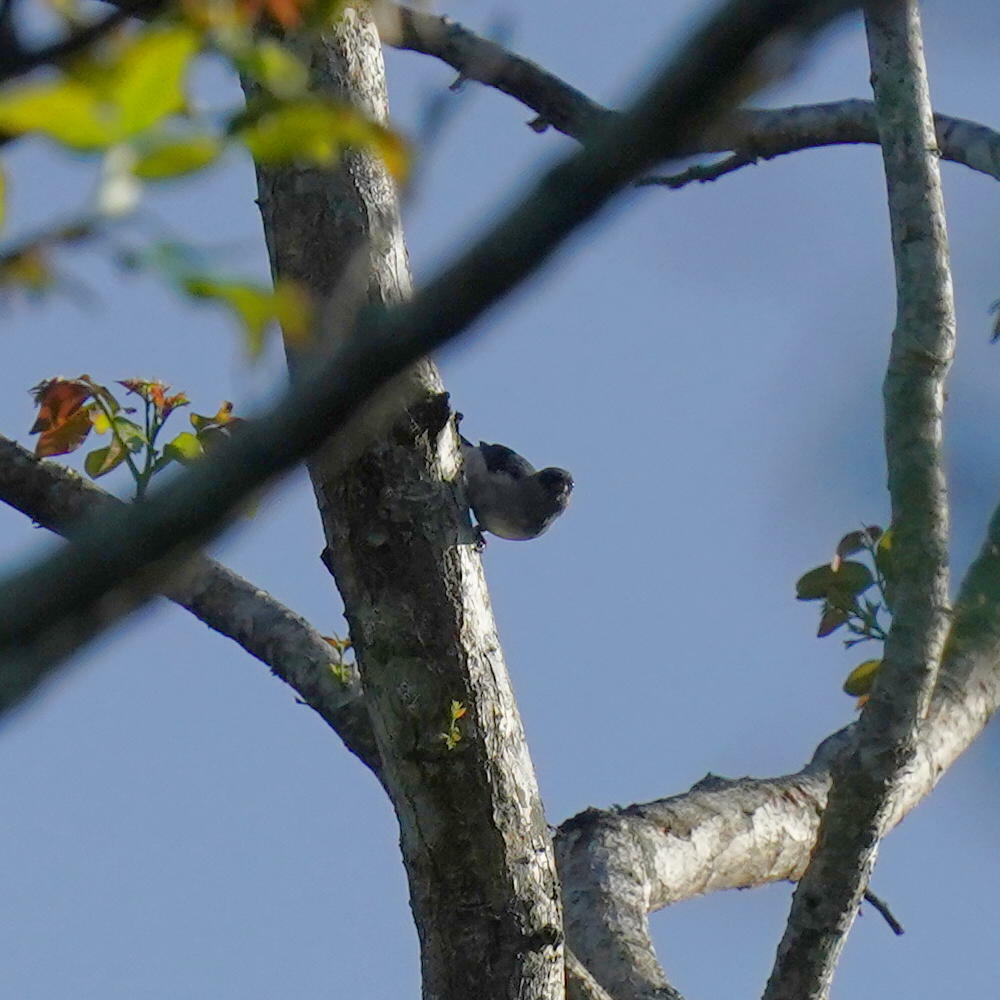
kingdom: Animalia
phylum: Chordata
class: Aves
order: Passeriformes
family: Thraupidae
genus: Tangara
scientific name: Tangara inornata
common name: Plain-colored tanager
